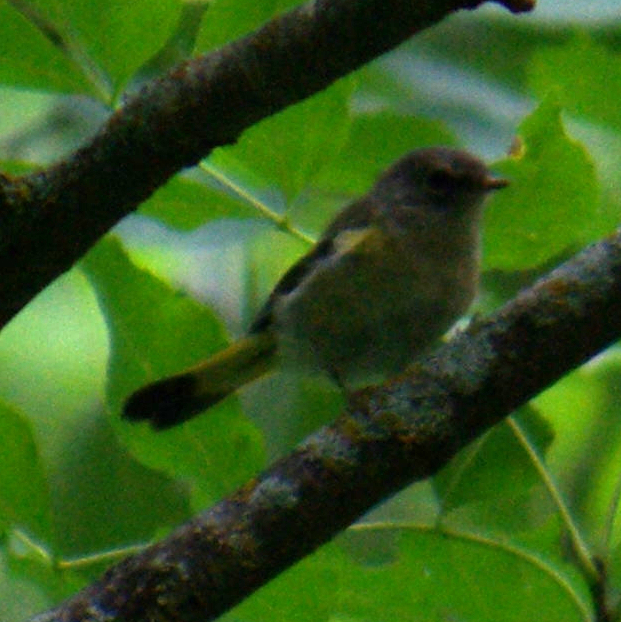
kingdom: Animalia
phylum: Chordata
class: Aves
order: Passeriformes
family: Parulidae
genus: Setophaga
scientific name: Setophaga ruticilla
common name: American redstart
